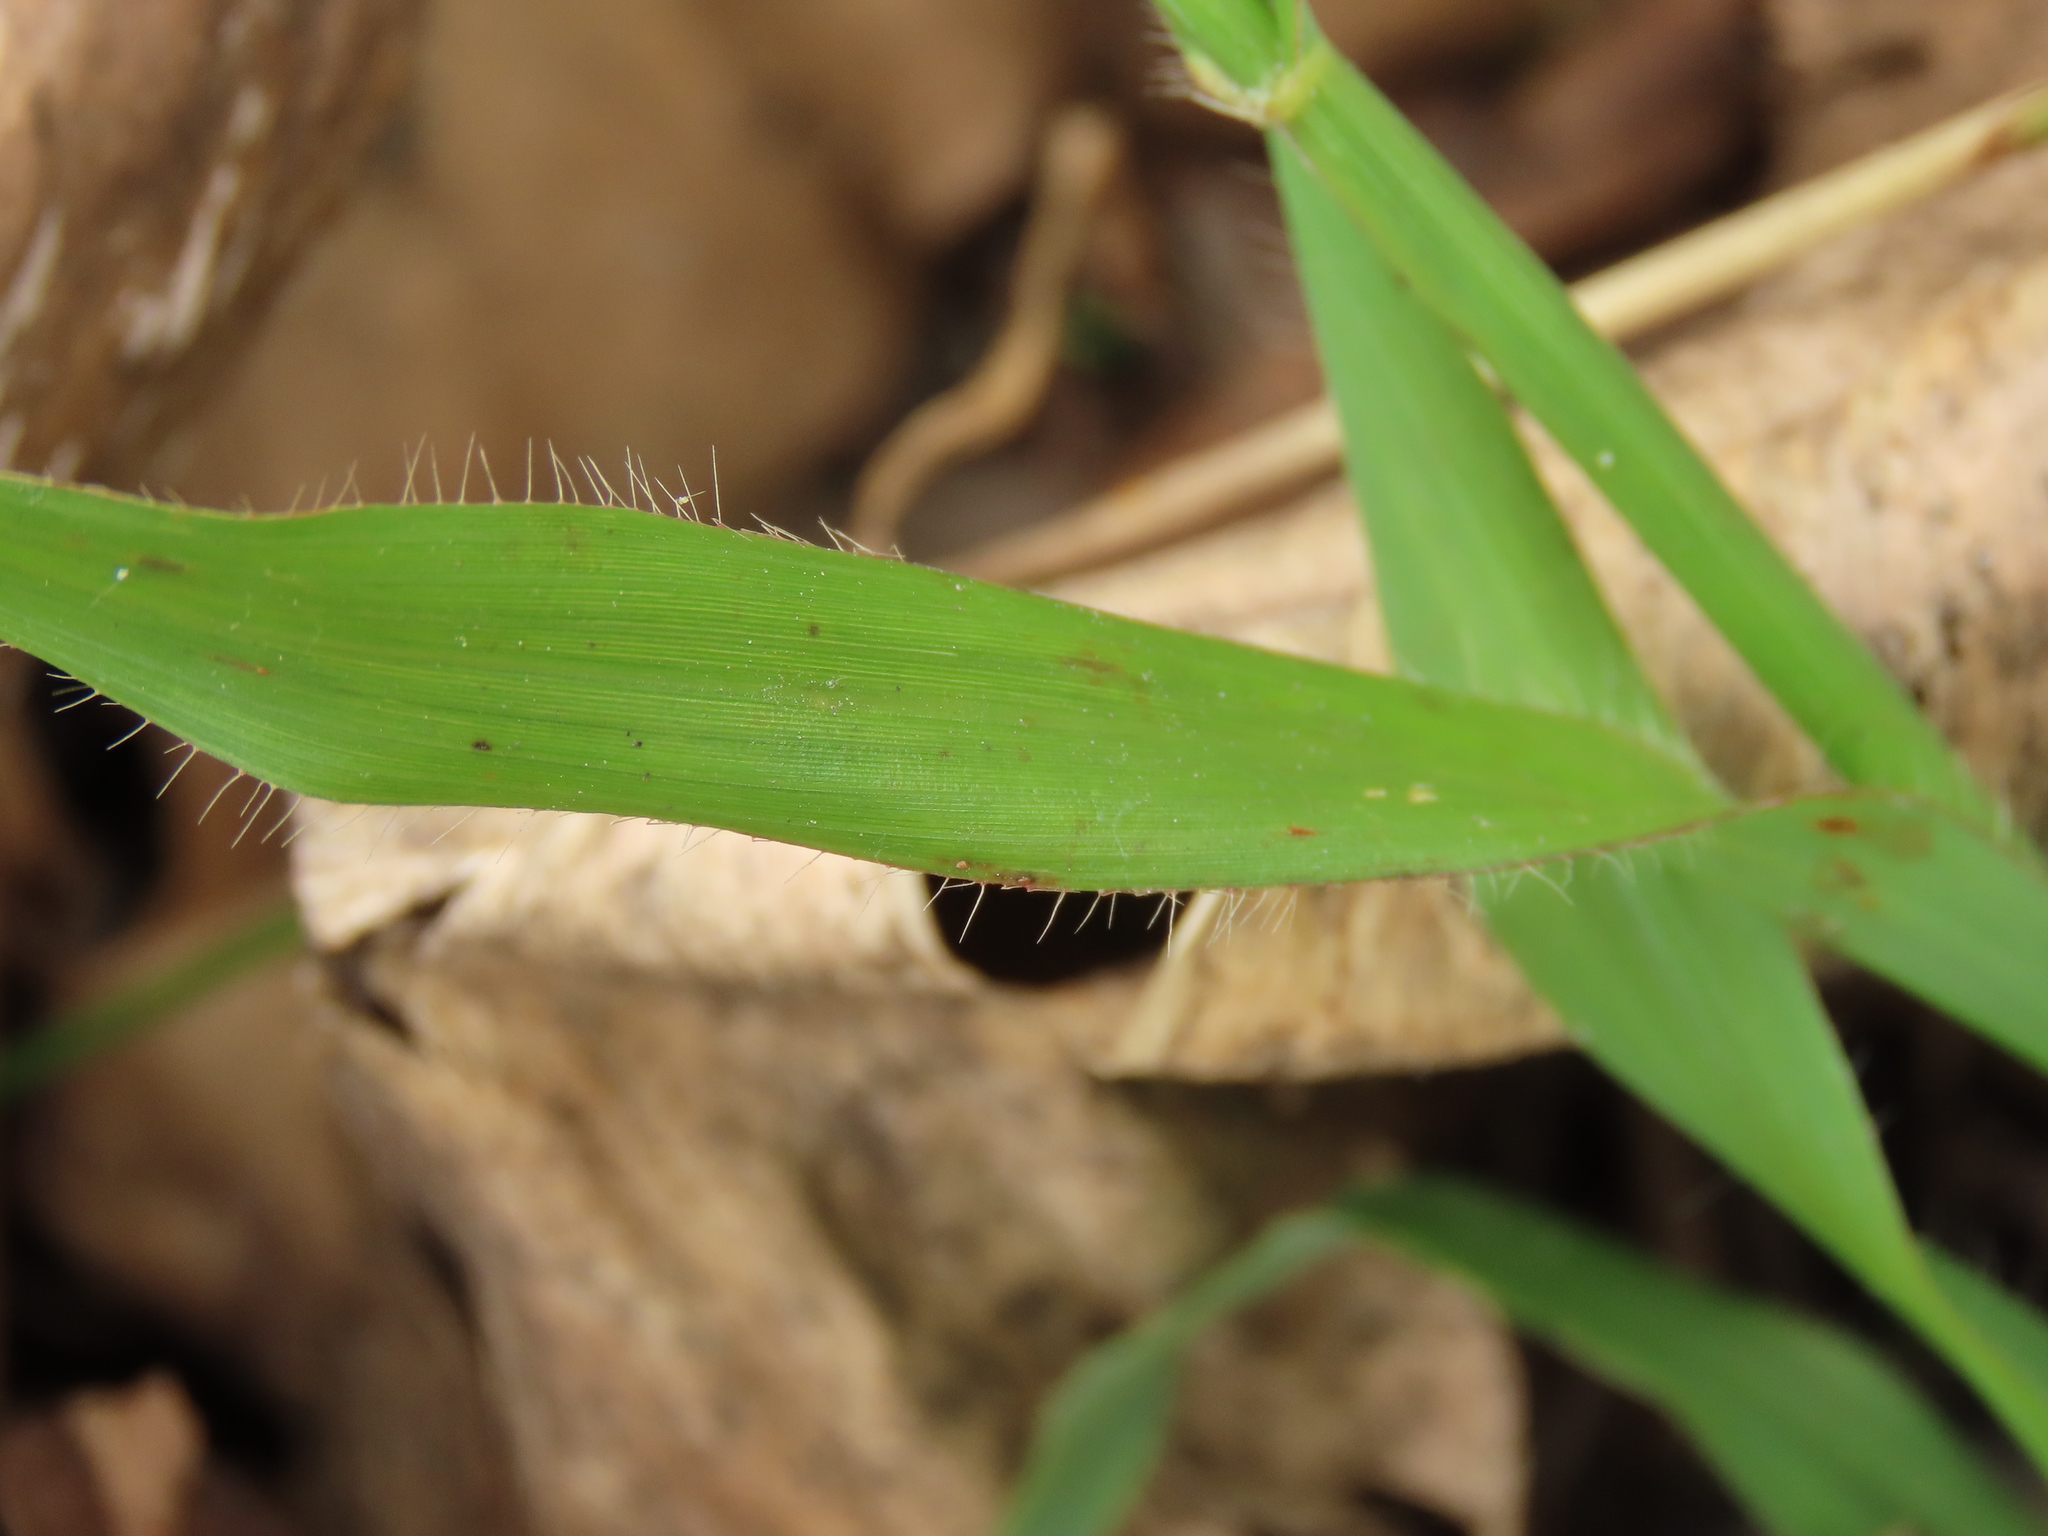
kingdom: Plantae
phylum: Tracheophyta
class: Liliopsida
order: Poales
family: Poaceae
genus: Dactyloctenium
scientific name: Dactyloctenium aegyptium
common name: Egyptian grass
